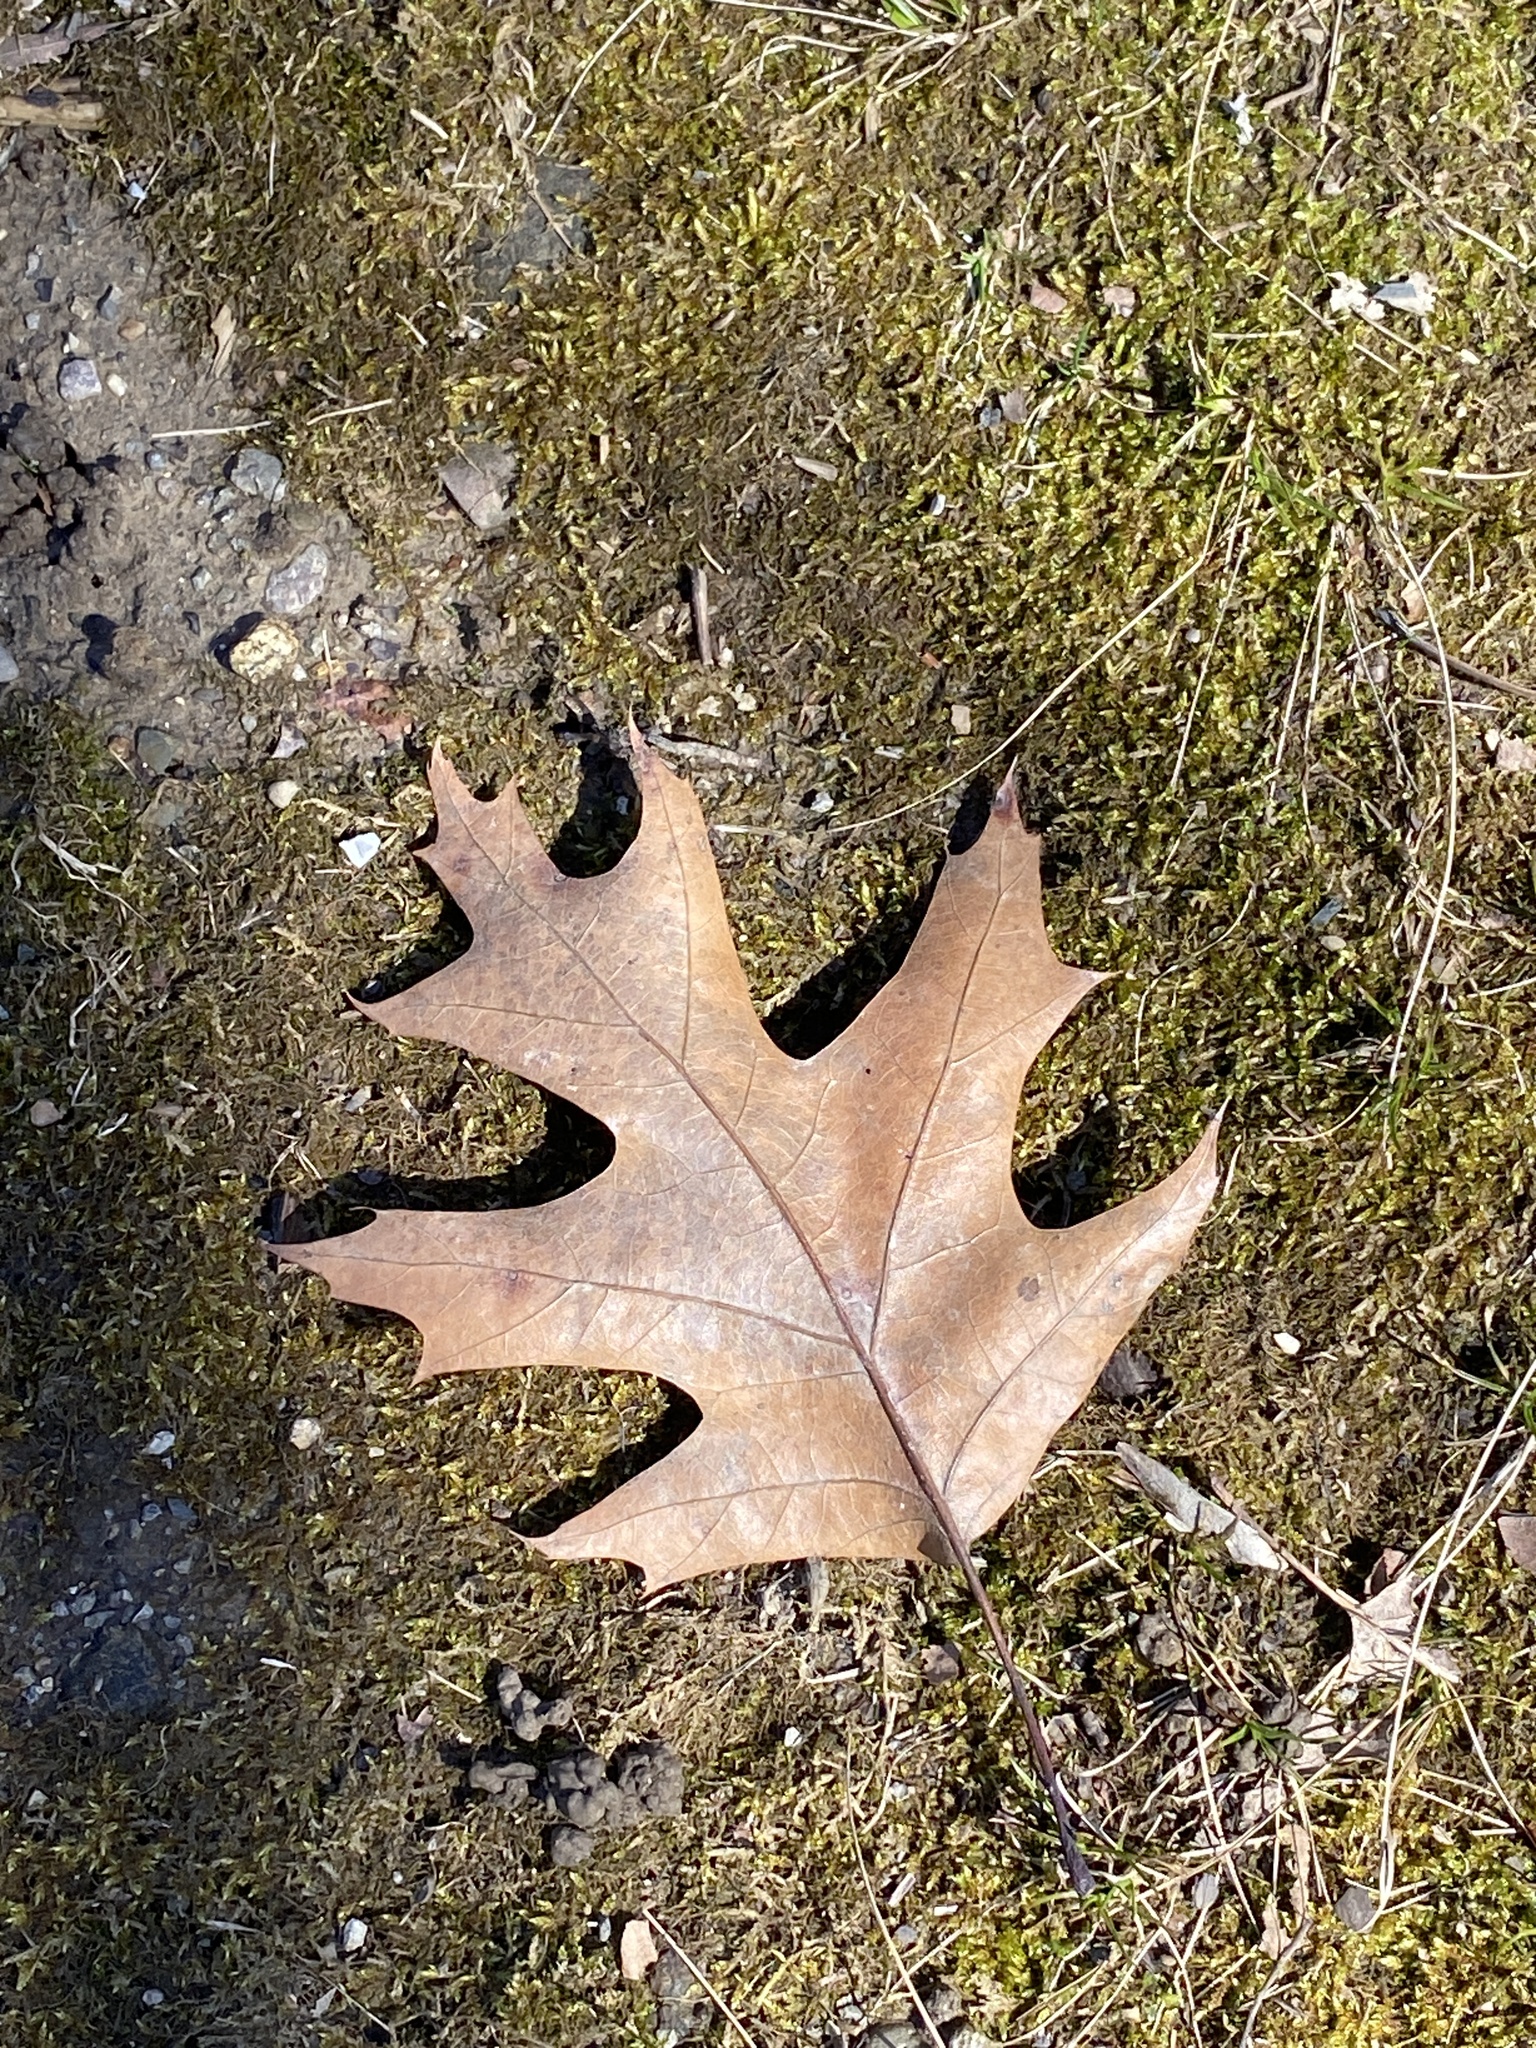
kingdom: Plantae
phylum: Tracheophyta
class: Magnoliopsida
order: Fagales
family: Fagaceae
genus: Quercus
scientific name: Quercus rubra
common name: Red oak
